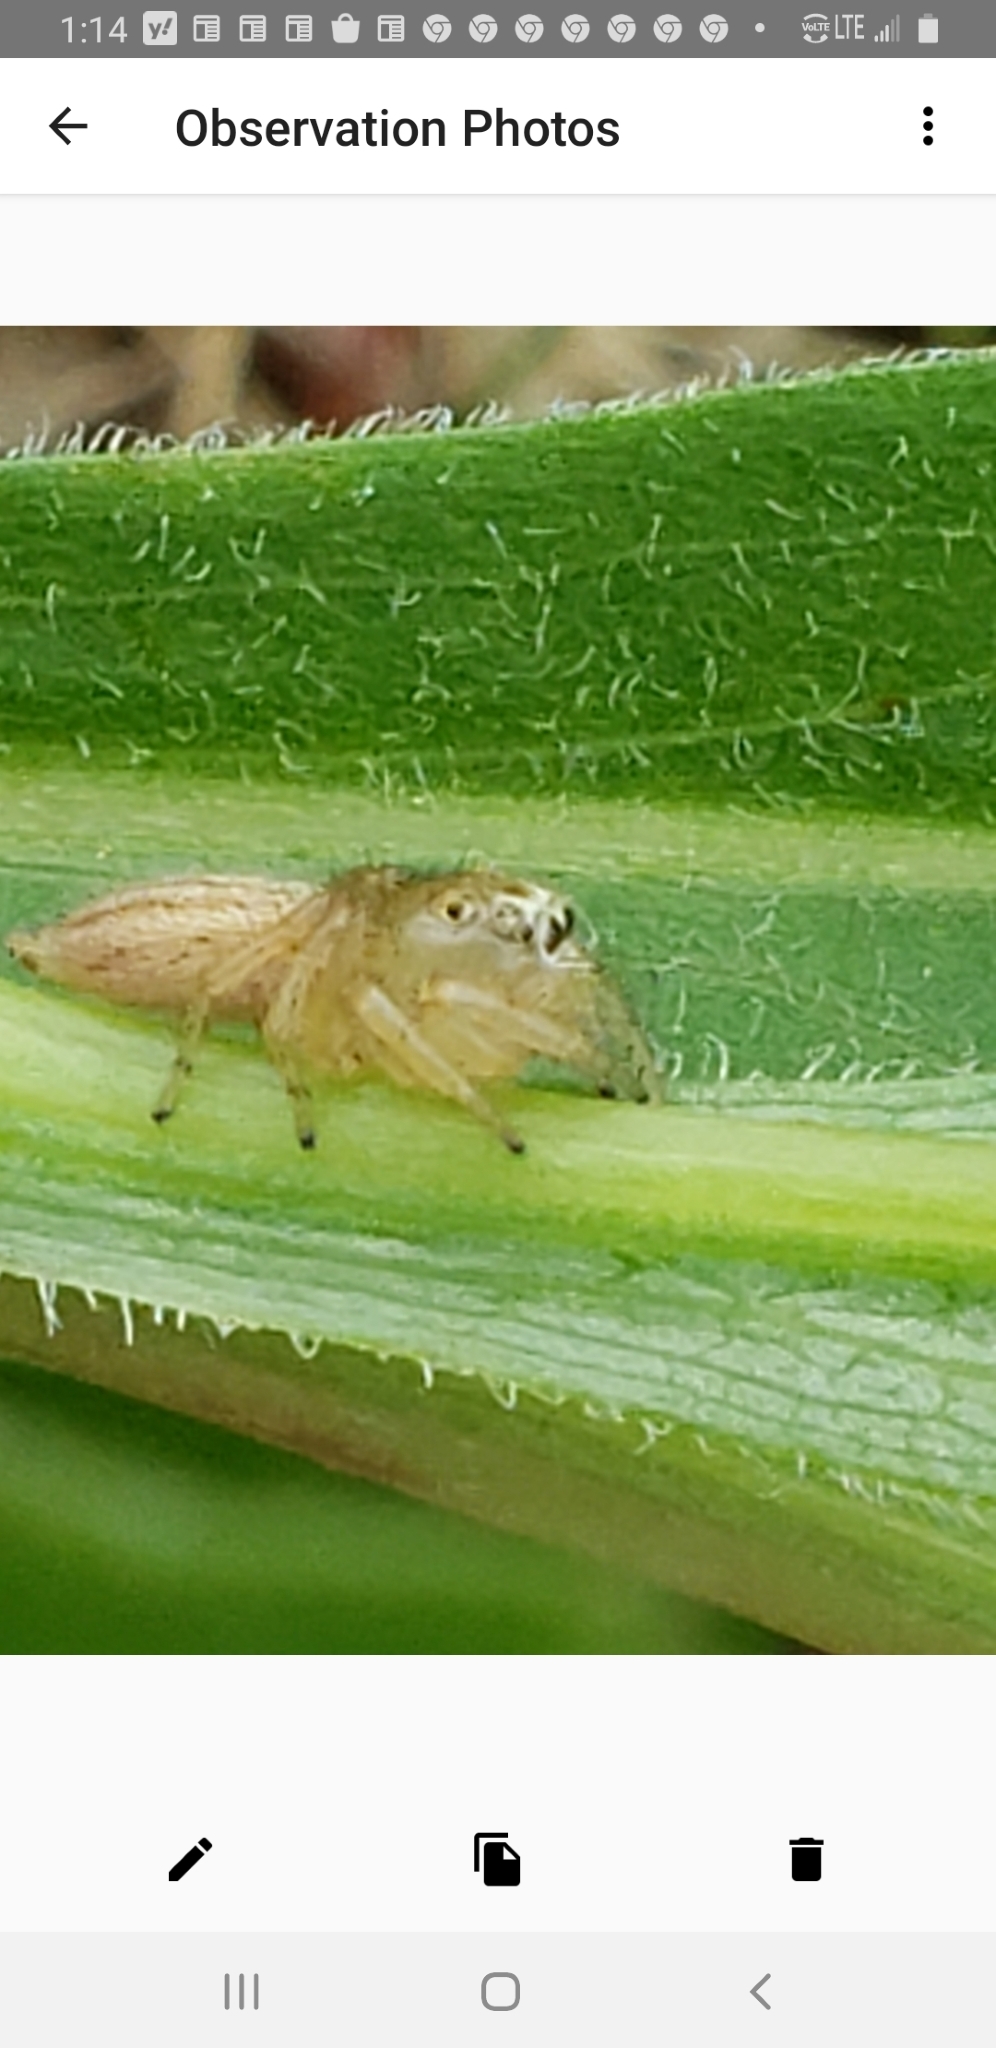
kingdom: Animalia
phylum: Arthropoda
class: Arachnida
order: Araneae
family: Salticidae
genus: Colonus
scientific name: Colonus puerperus
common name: Jumping spiders
